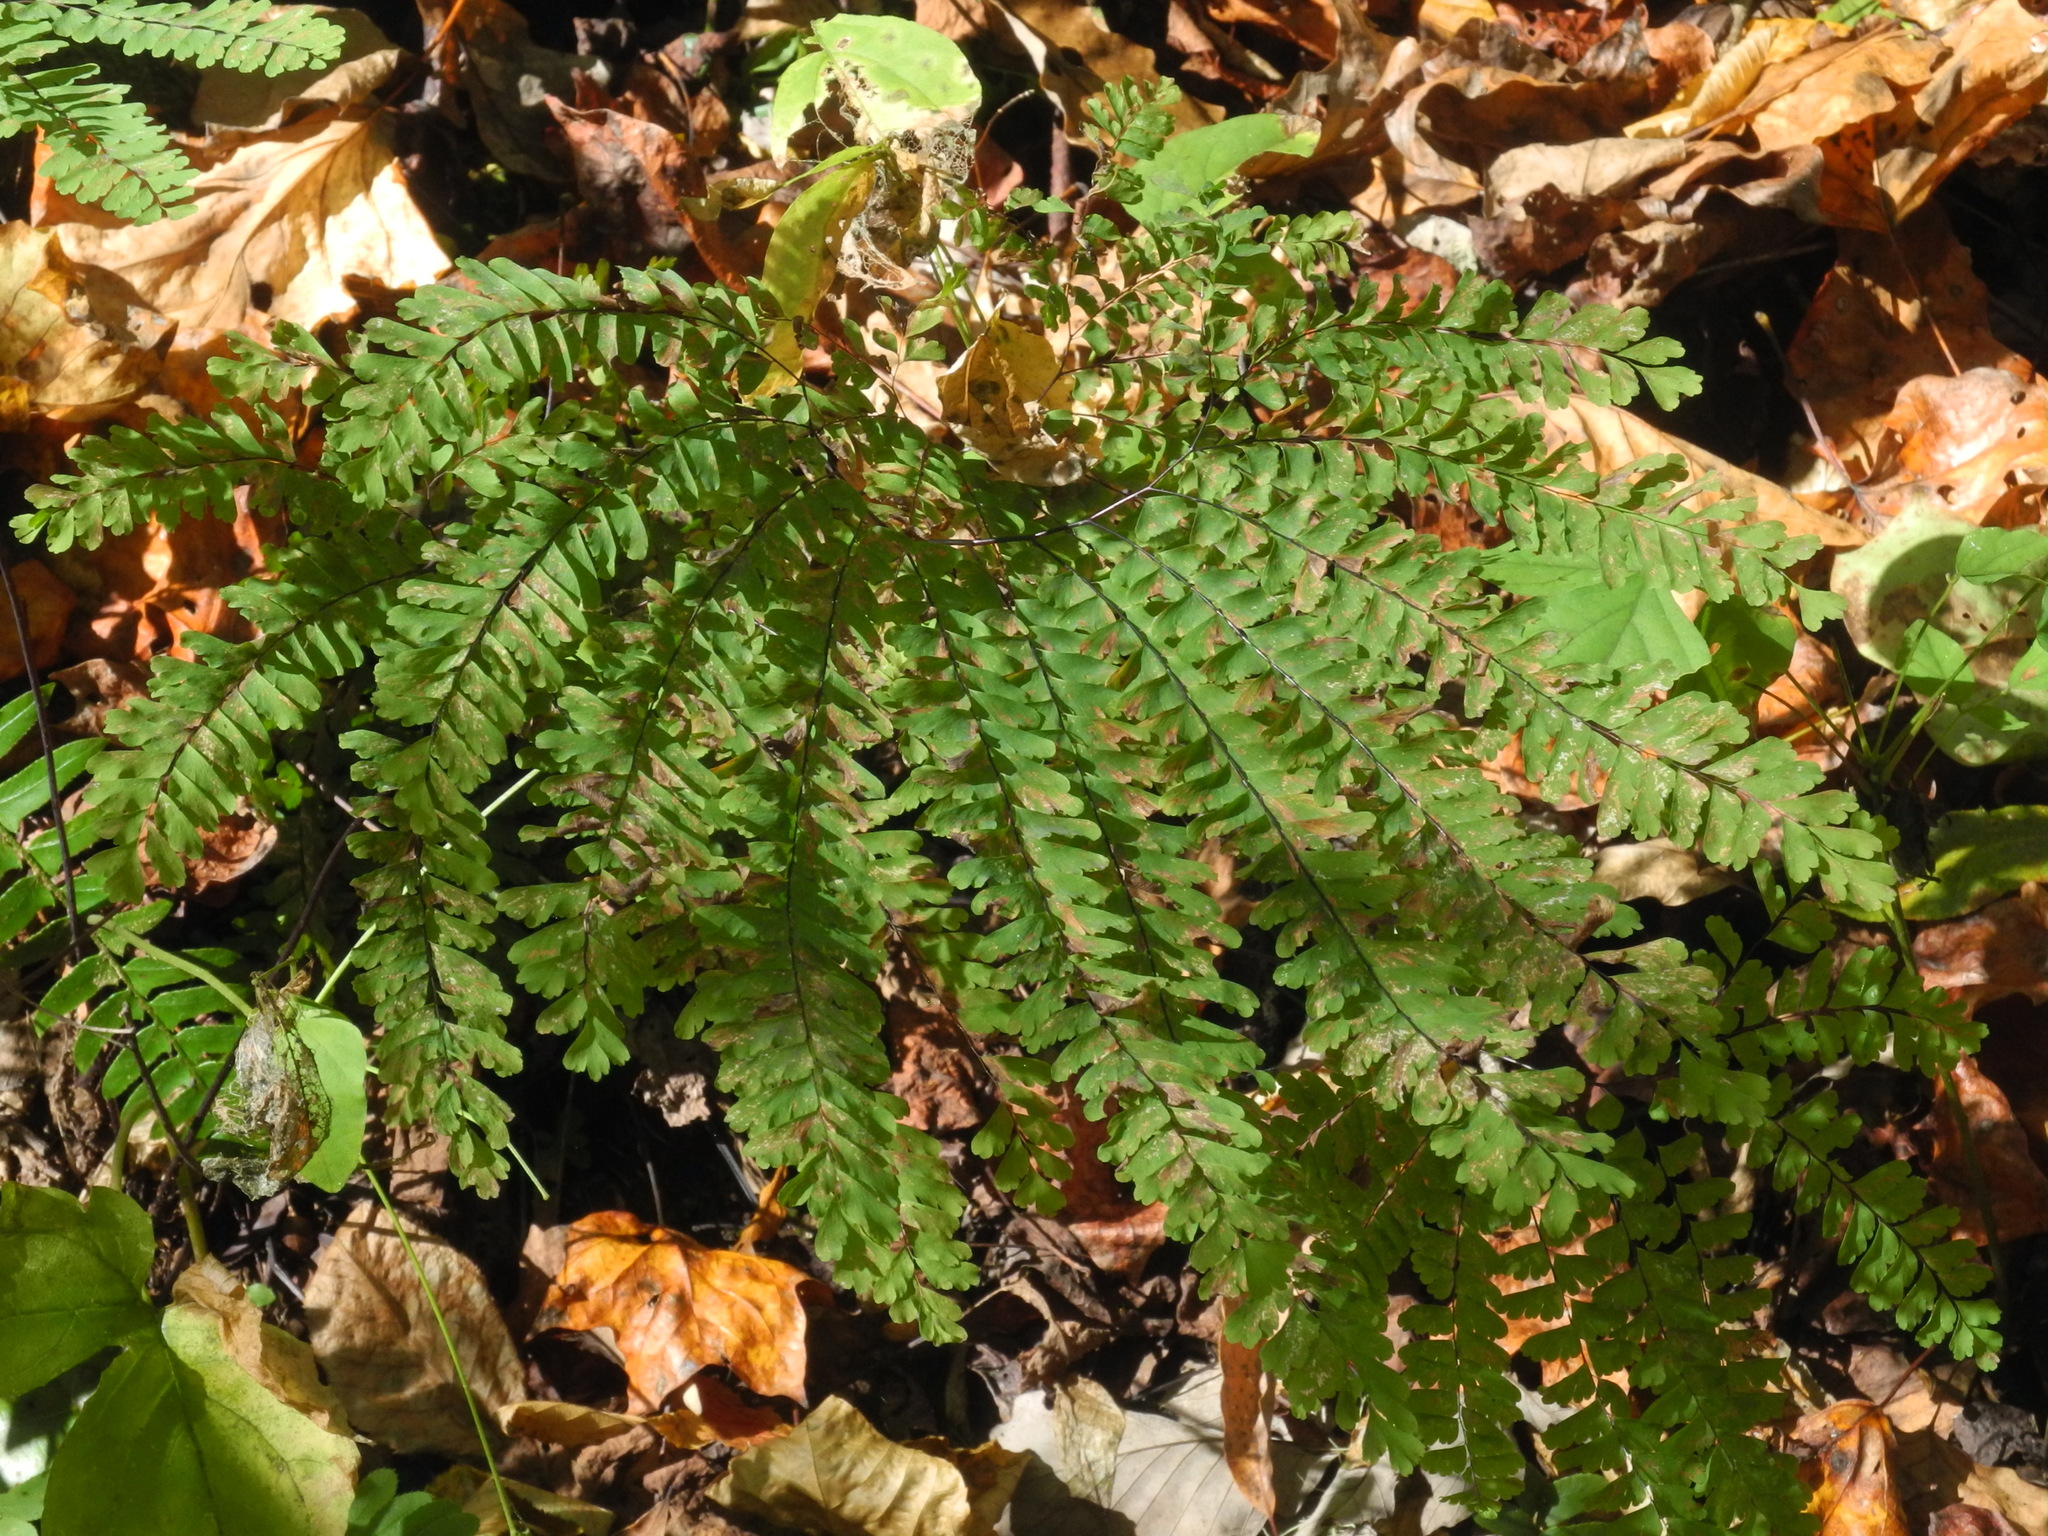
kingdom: Plantae
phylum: Tracheophyta
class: Polypodiopsida
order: Polypodiales
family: Pteridaceae
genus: Adiantum
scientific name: Adiantum pedatum
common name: Five-finger fern
